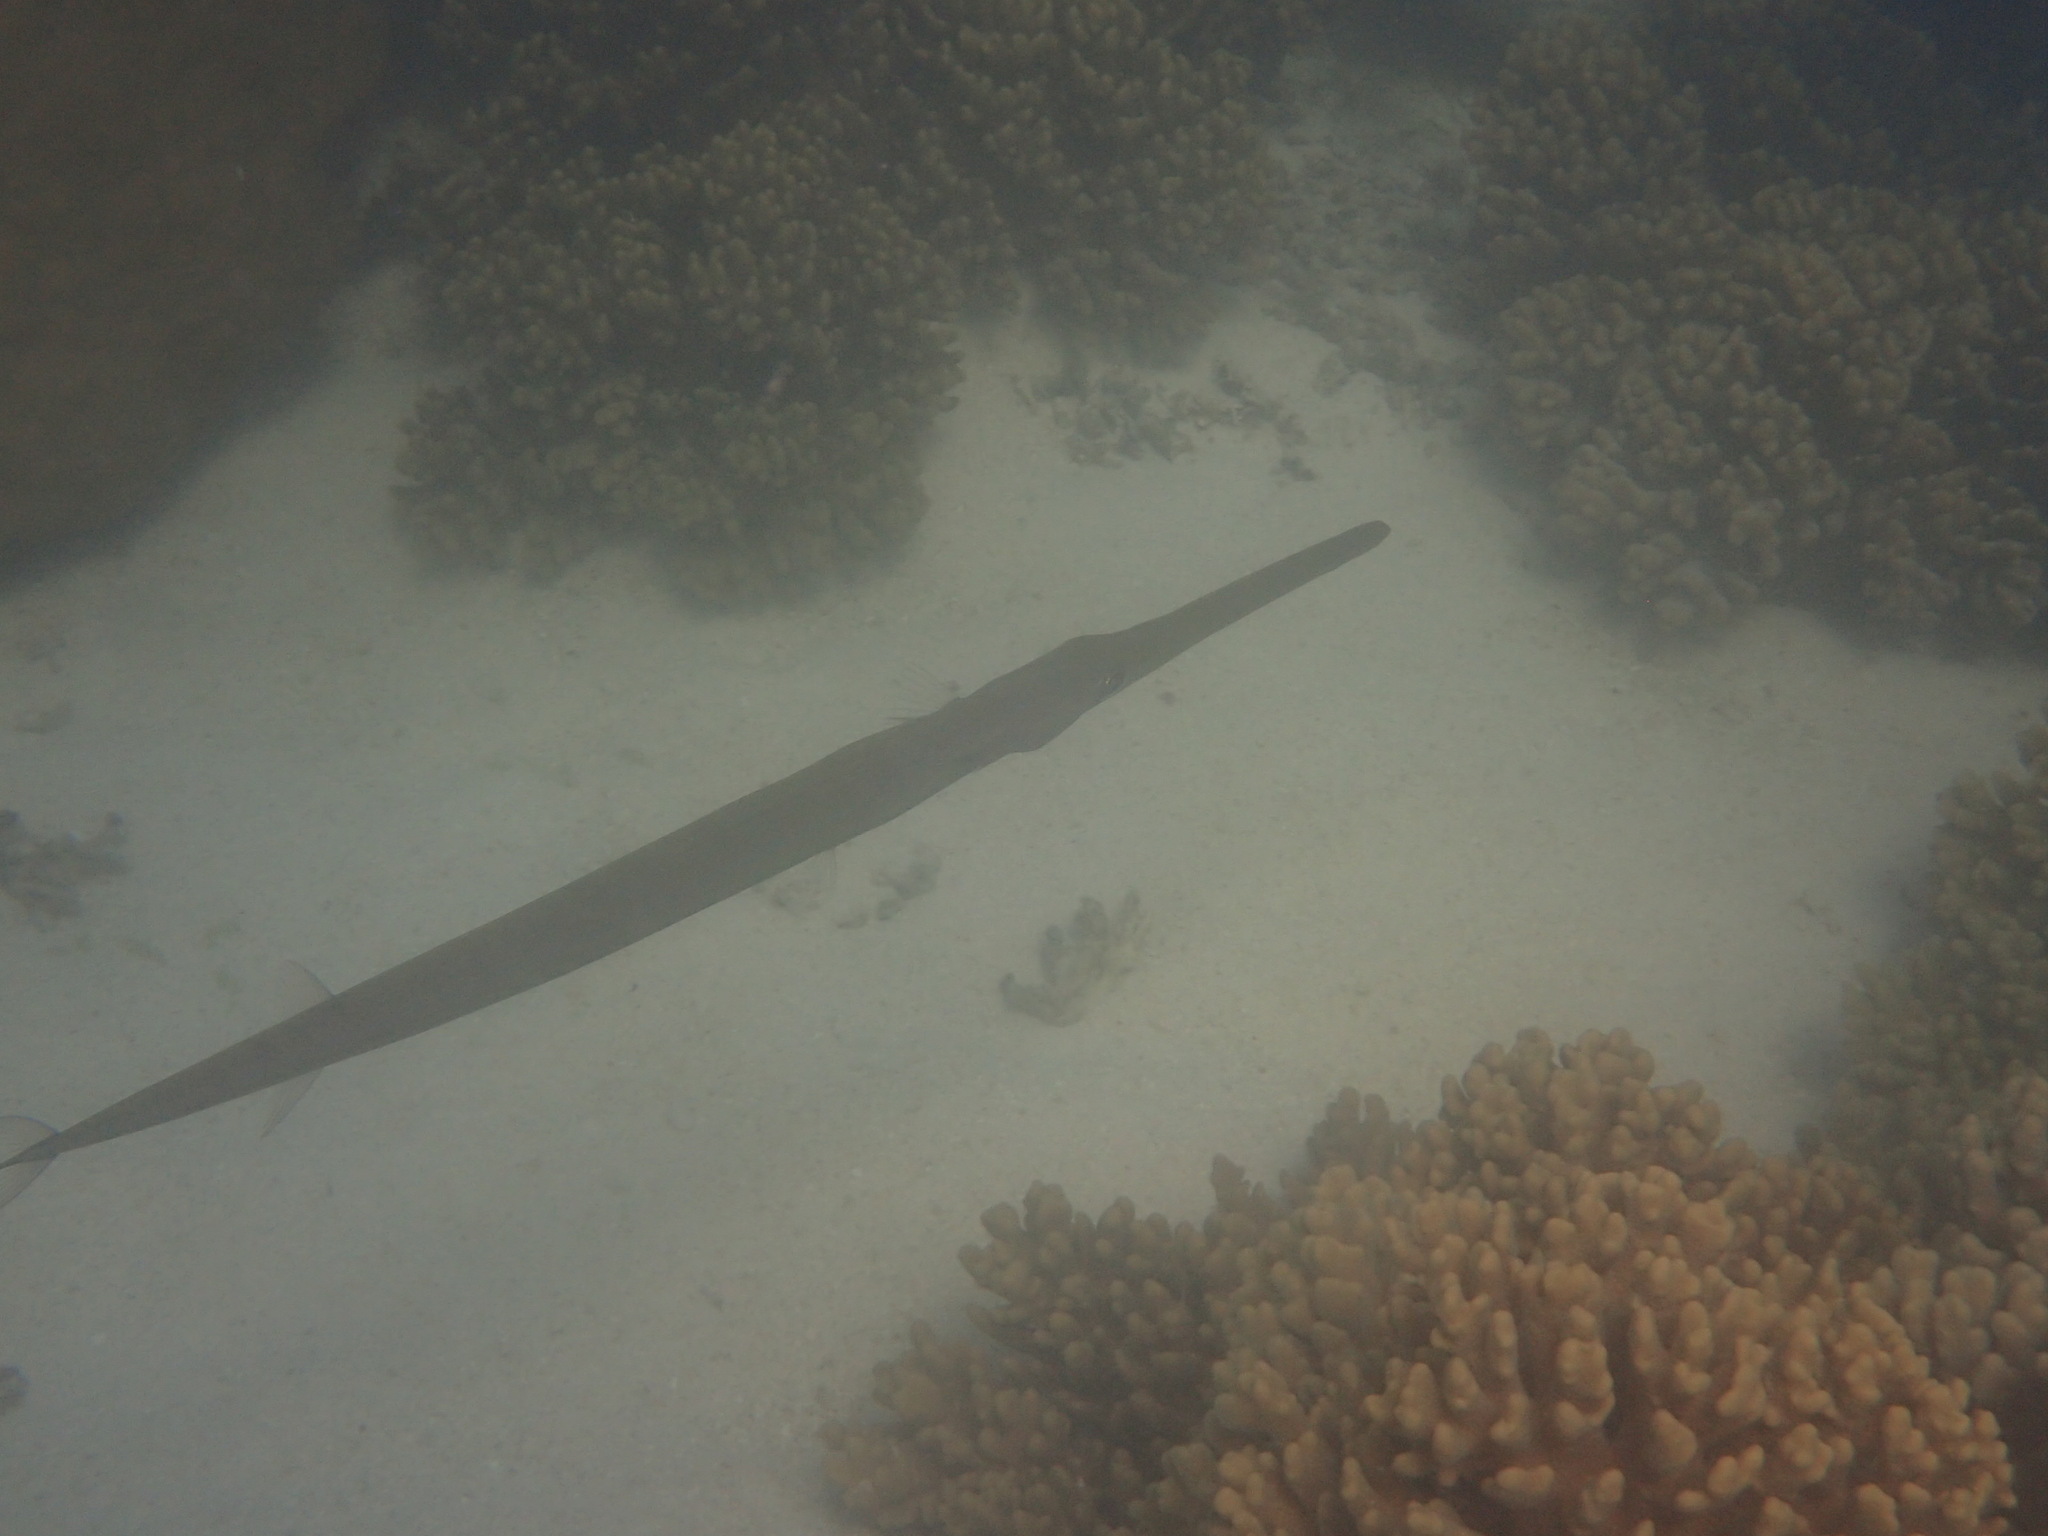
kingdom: Animalia
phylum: Chordata
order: Syngnathiformes
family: Fistulariidae
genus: Fistularia
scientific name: Fistularia commersonii
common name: Bluespotted cornetfish
